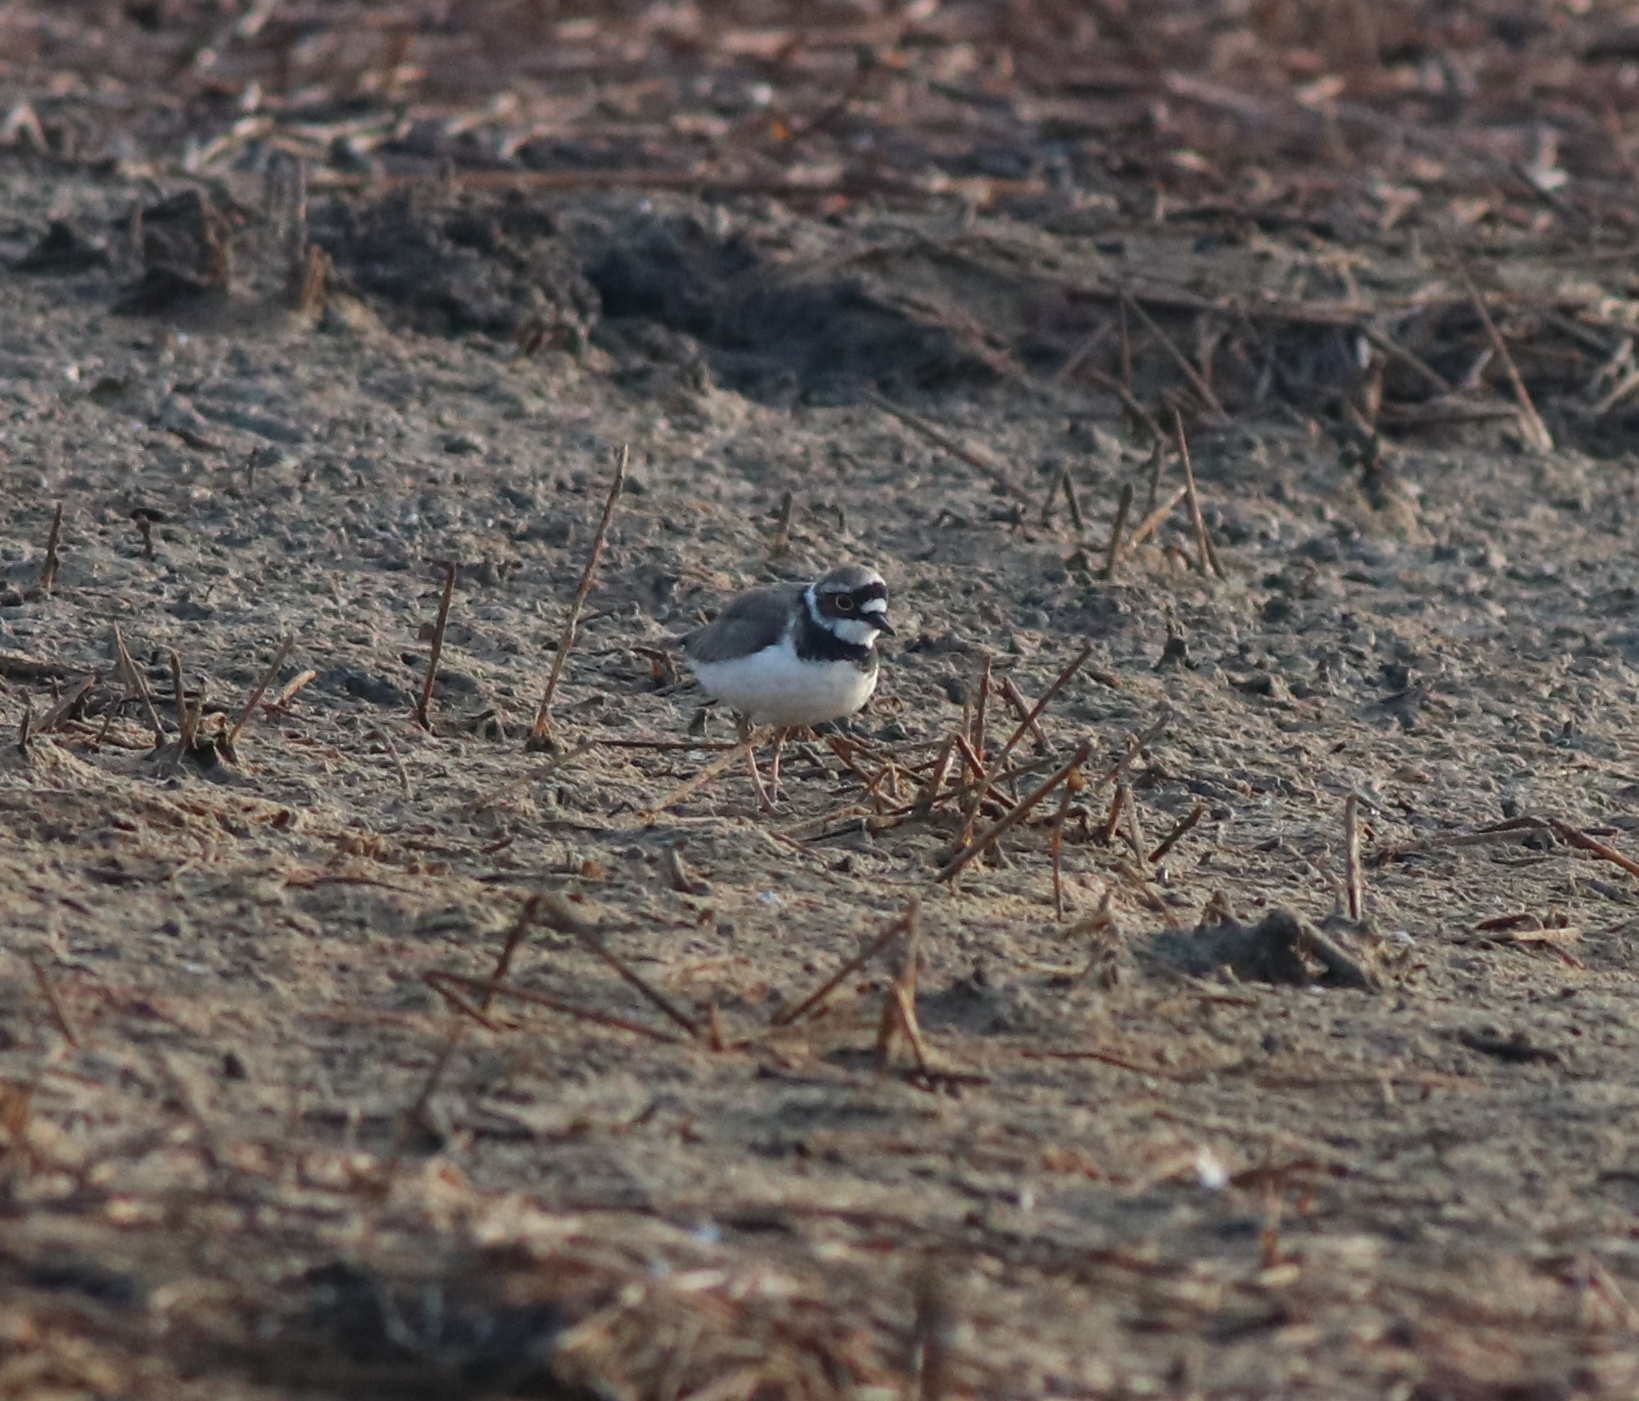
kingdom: Animalia
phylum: Chordata
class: Aves
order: Charadriiformes
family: Charadriidae
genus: Charadrius
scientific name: Charadrius dubius
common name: Little ringed plover
